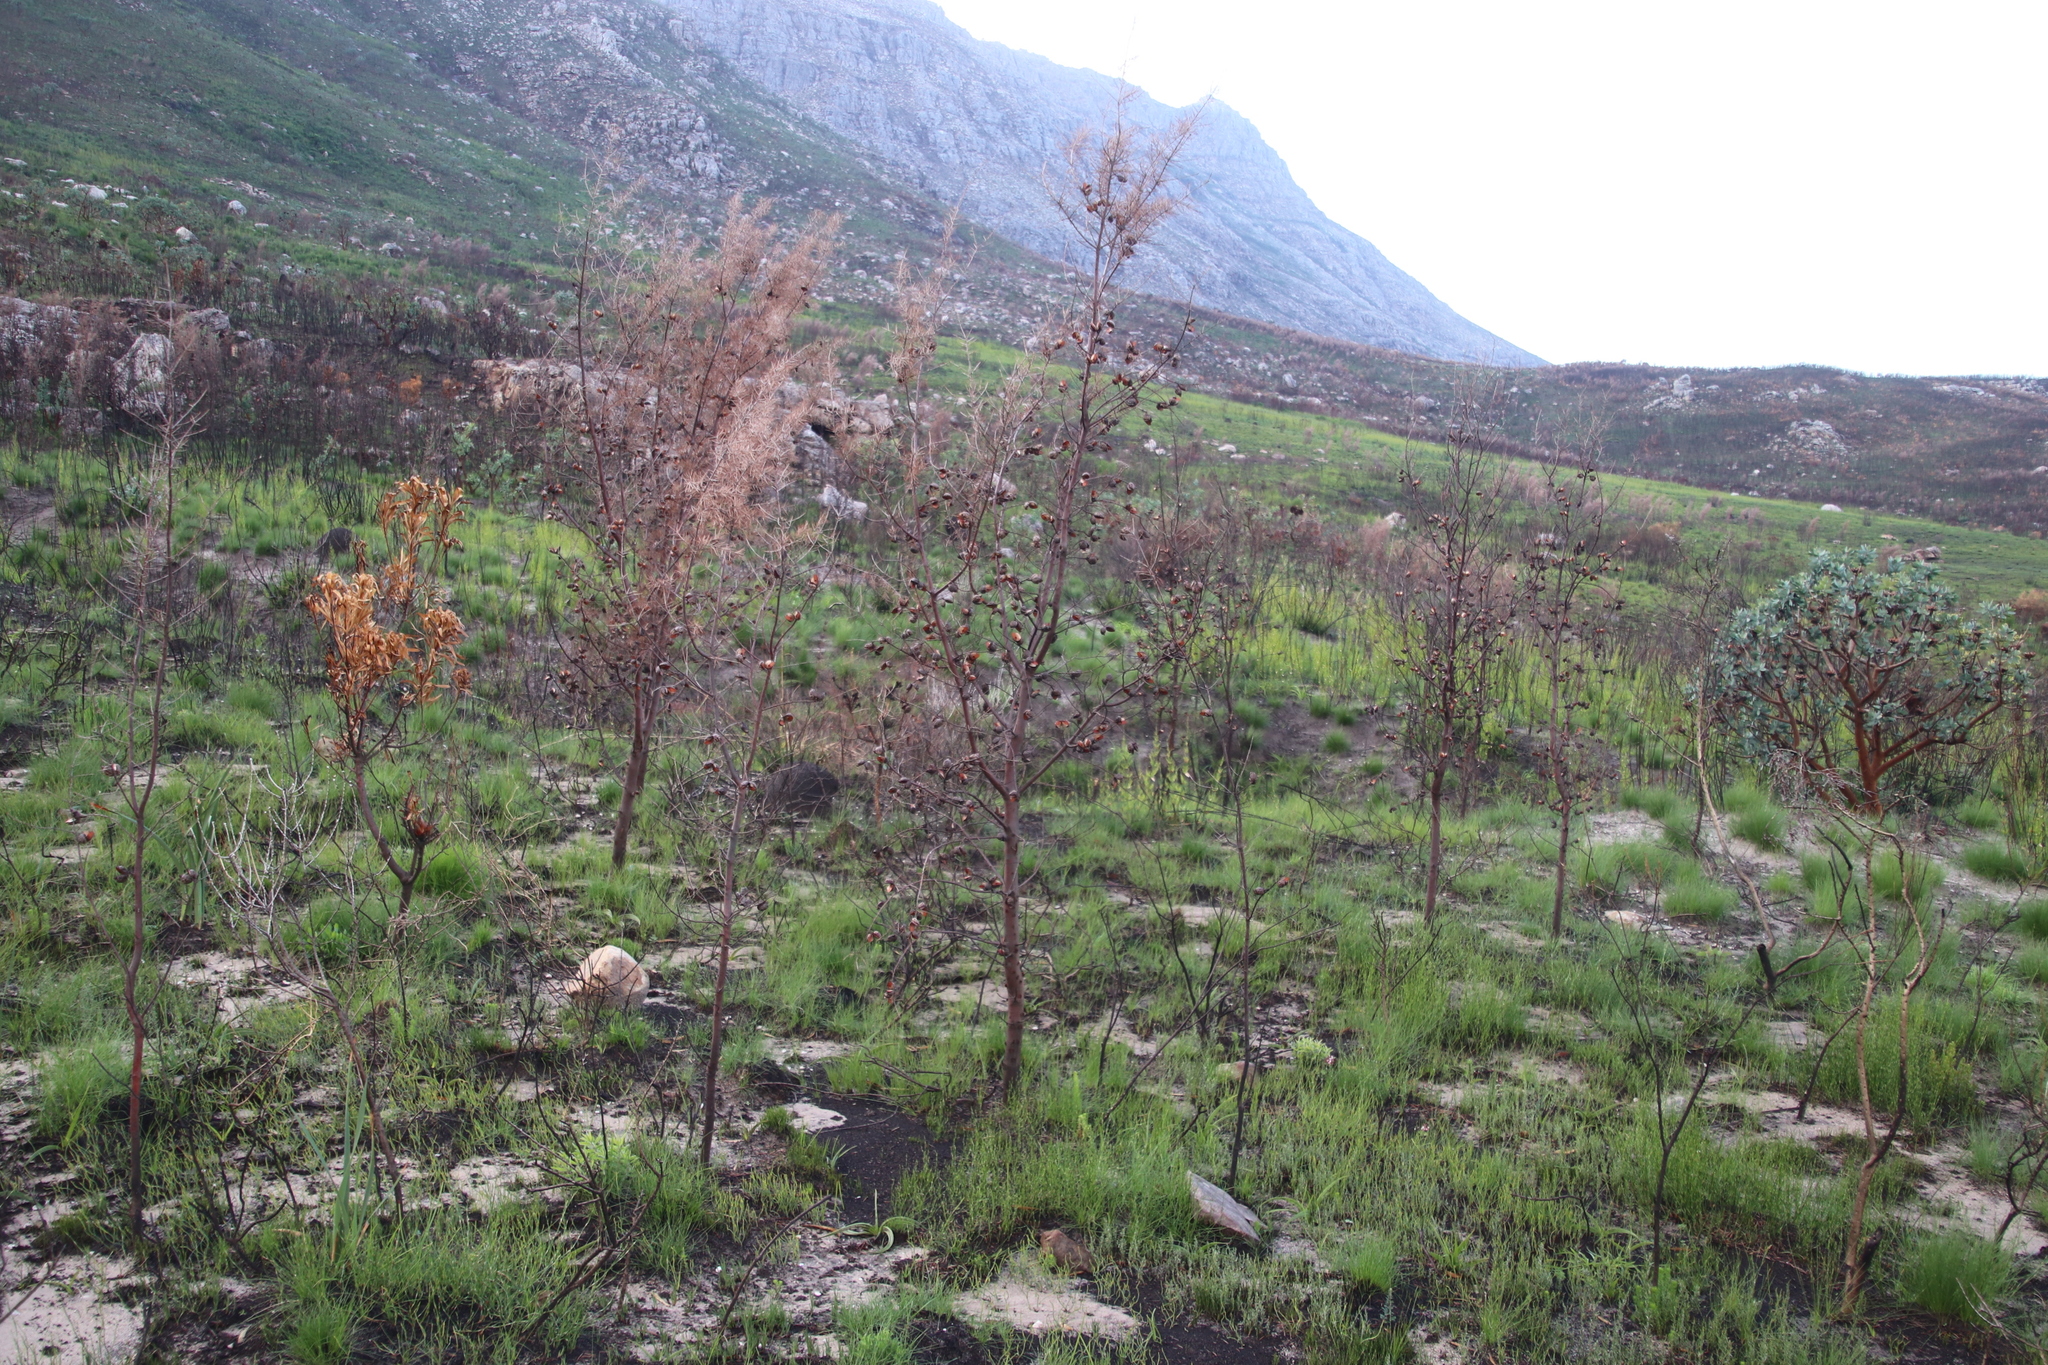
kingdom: Plantae
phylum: Tracheophyta
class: Magnoliopsida
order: Proteales
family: Proteaceae
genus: Hakea
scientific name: Hakea sericea
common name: Needle bush
